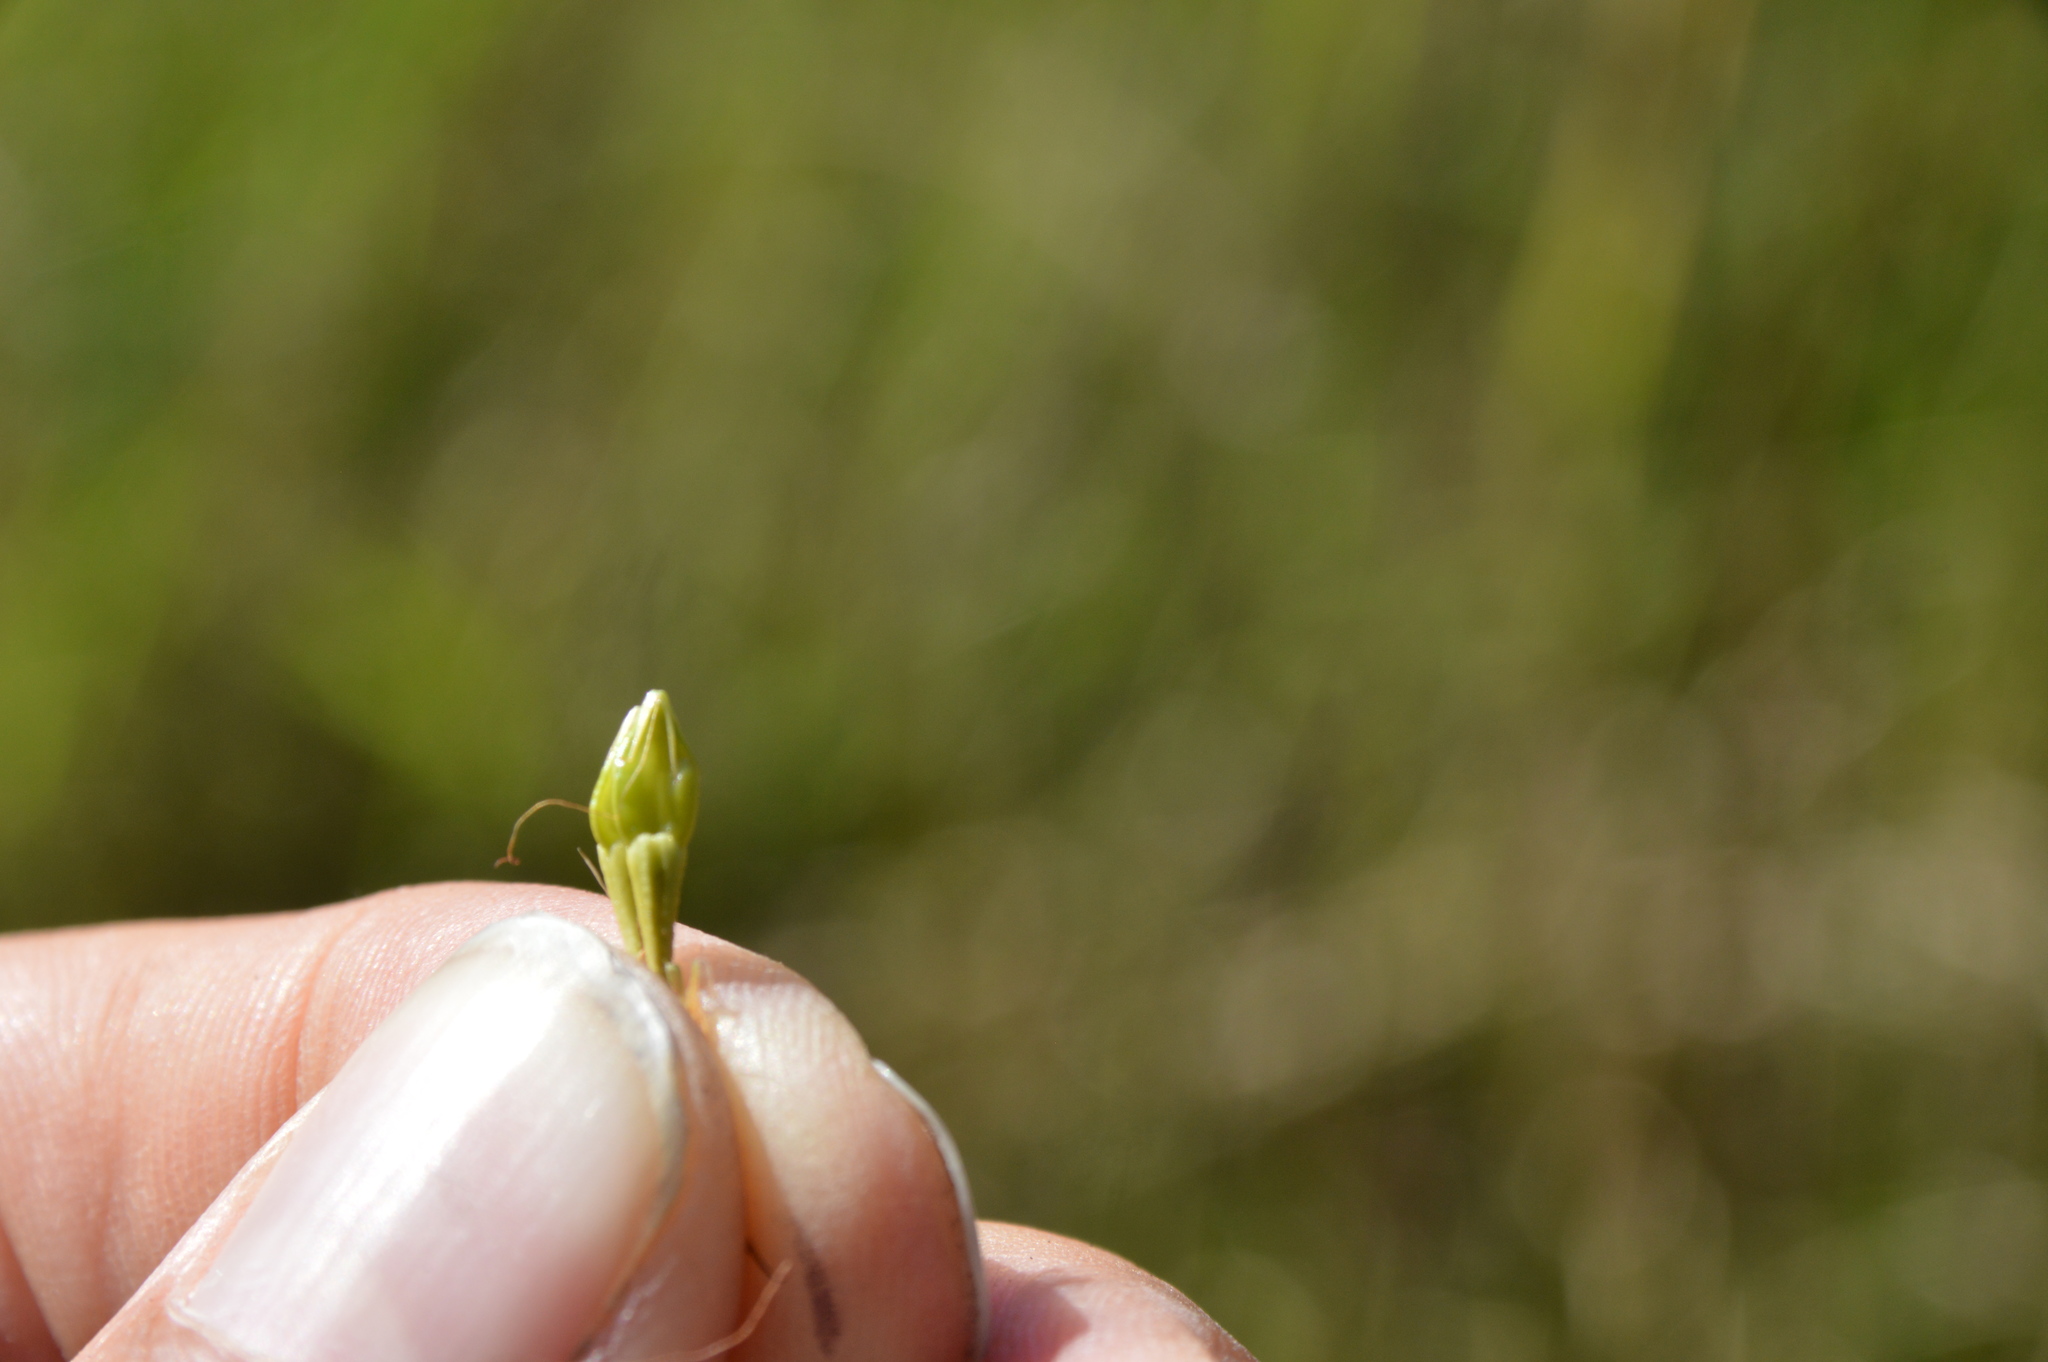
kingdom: Plantae
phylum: Tracheophyta
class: Liliopsida
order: Poales
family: Cyperaceae
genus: Rhynchospora
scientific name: Rhynchospora corniculata
